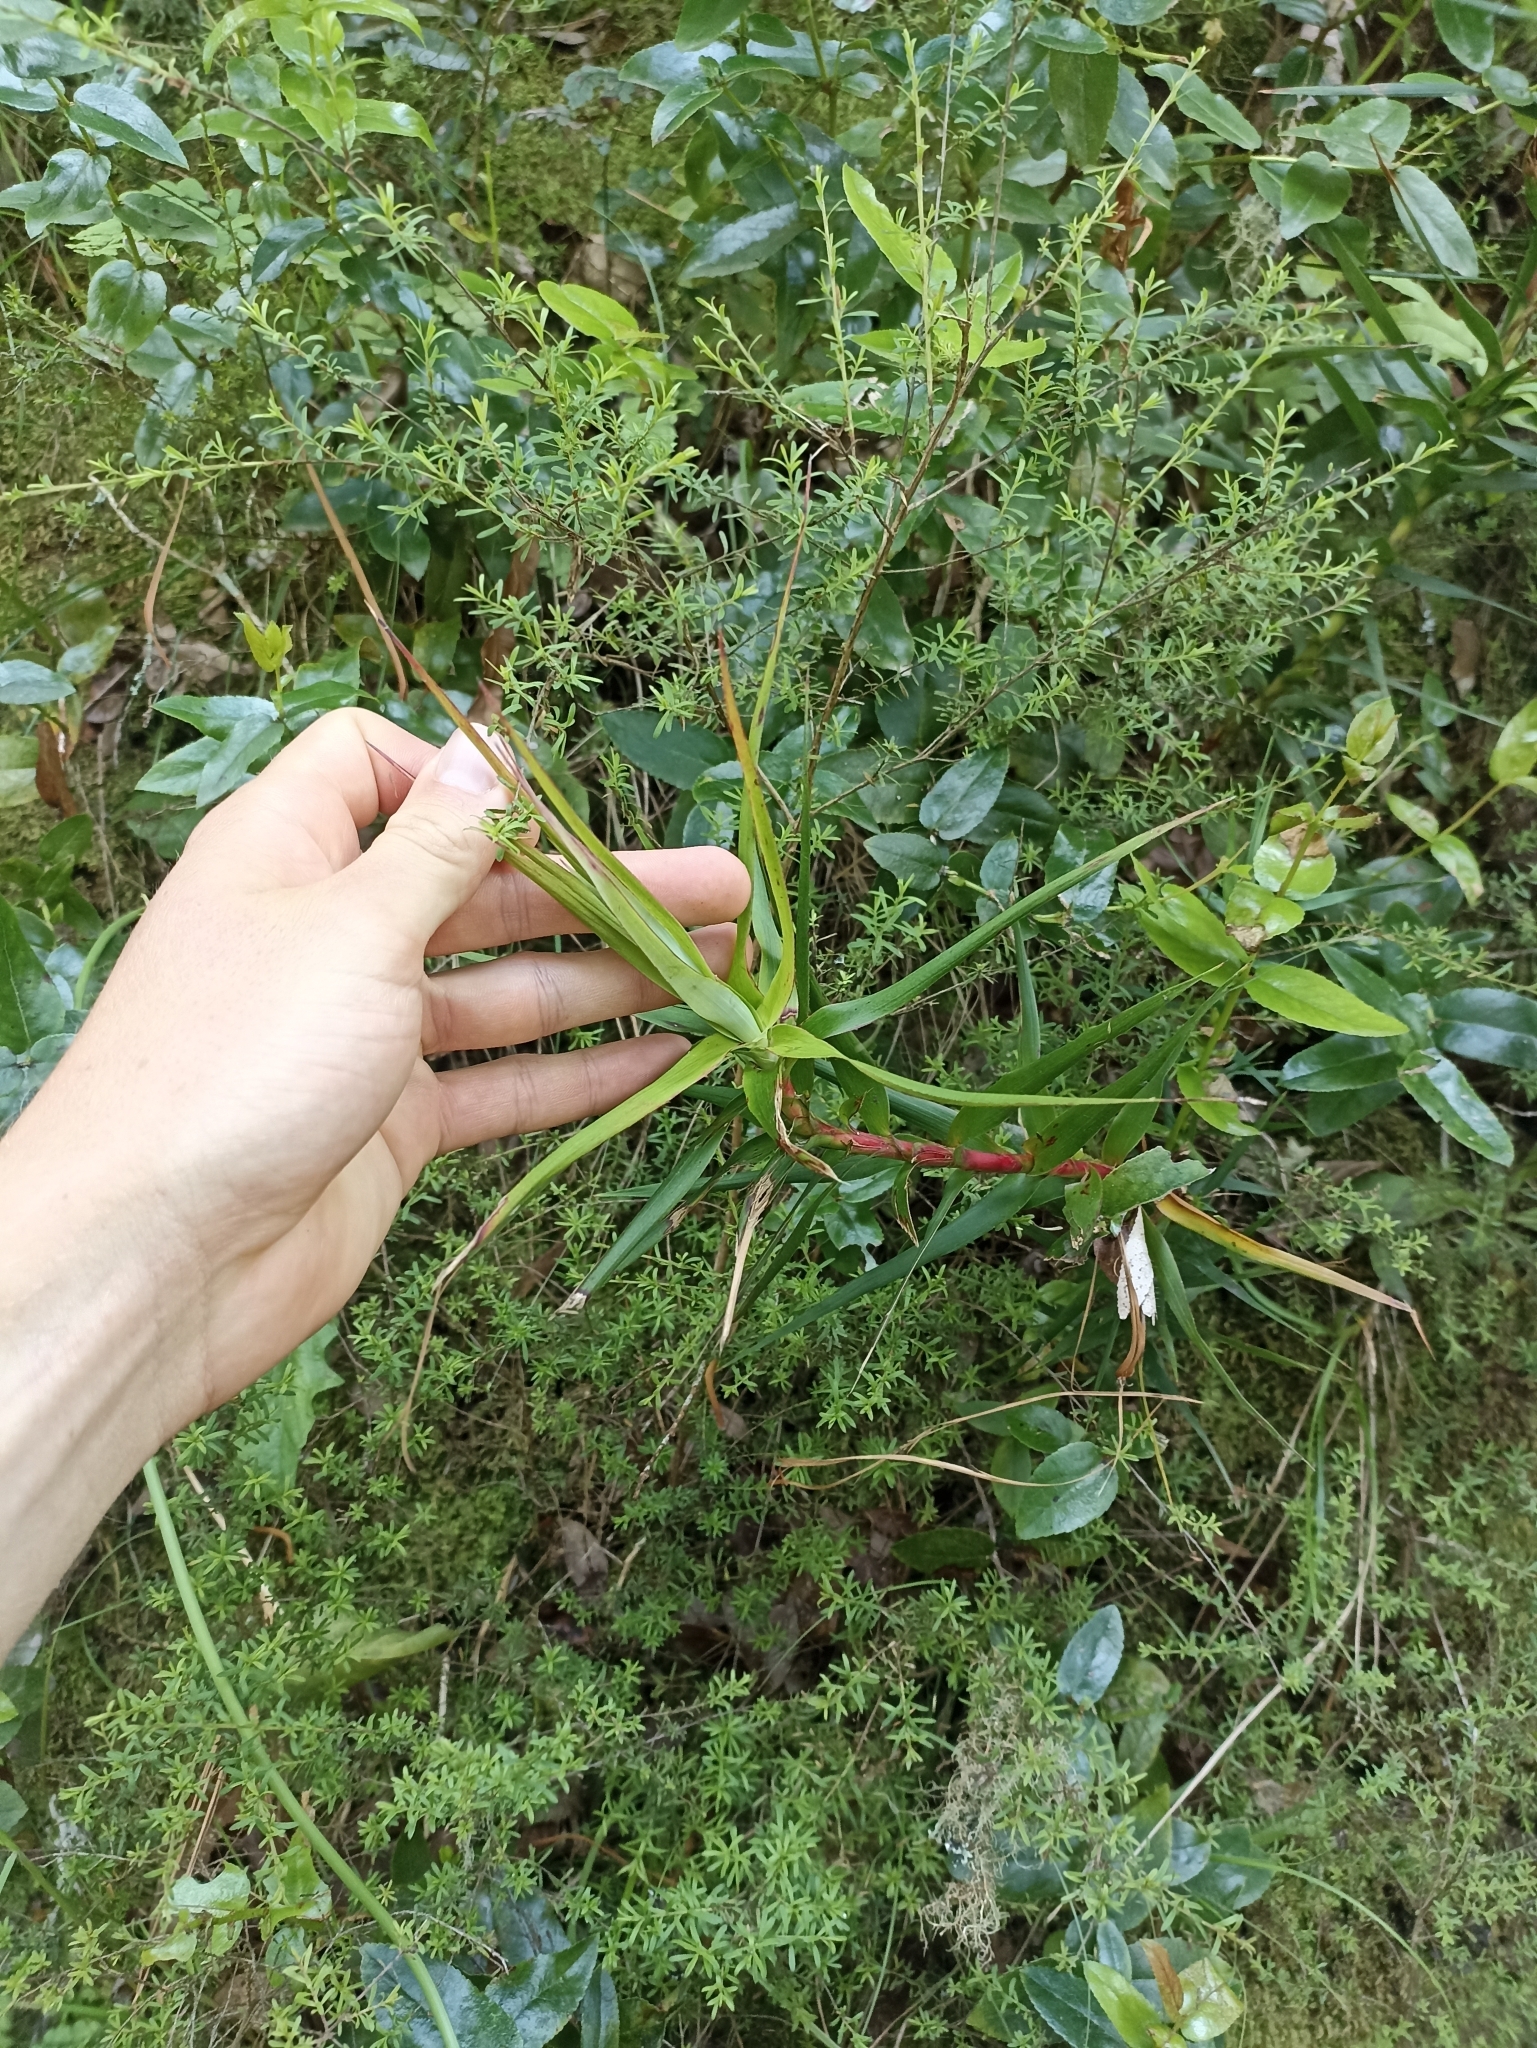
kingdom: Plantae
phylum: Tracheophyta
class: Magnoliopsida
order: Ericales
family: Ericaceae
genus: Dracophyllum
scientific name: Dracophyllum strictum
